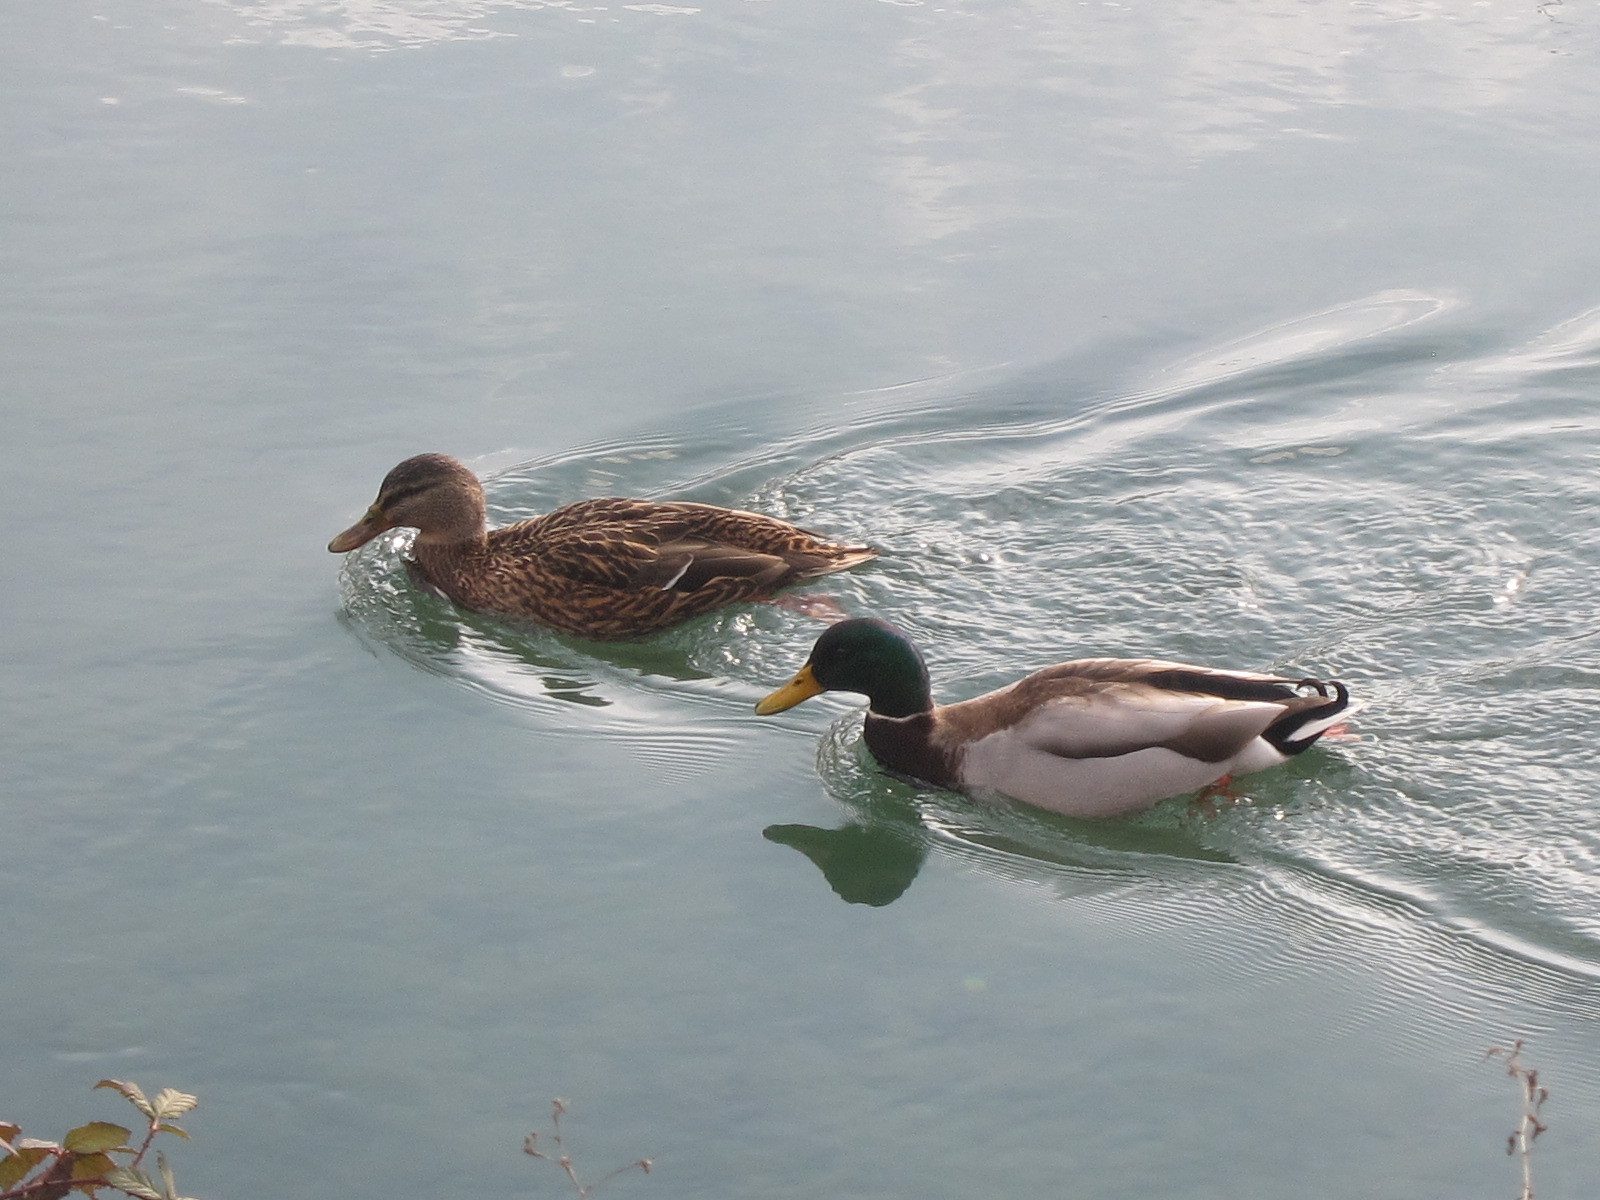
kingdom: Animalia
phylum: Chordata
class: Aves
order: Anseriformes
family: Anatidae
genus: Anas
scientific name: Anas platyrhynchos
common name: Mallard
